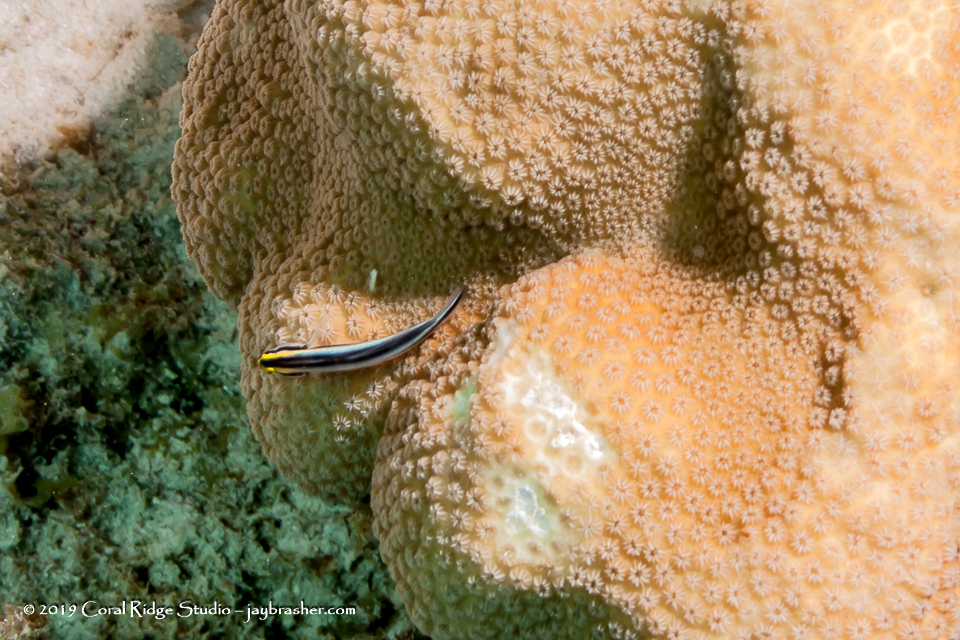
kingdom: Animalia
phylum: Chordata
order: Perciformes
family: Gobiidae
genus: Elacatinus
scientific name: Elacatinus evelynae
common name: Sharknose goby
